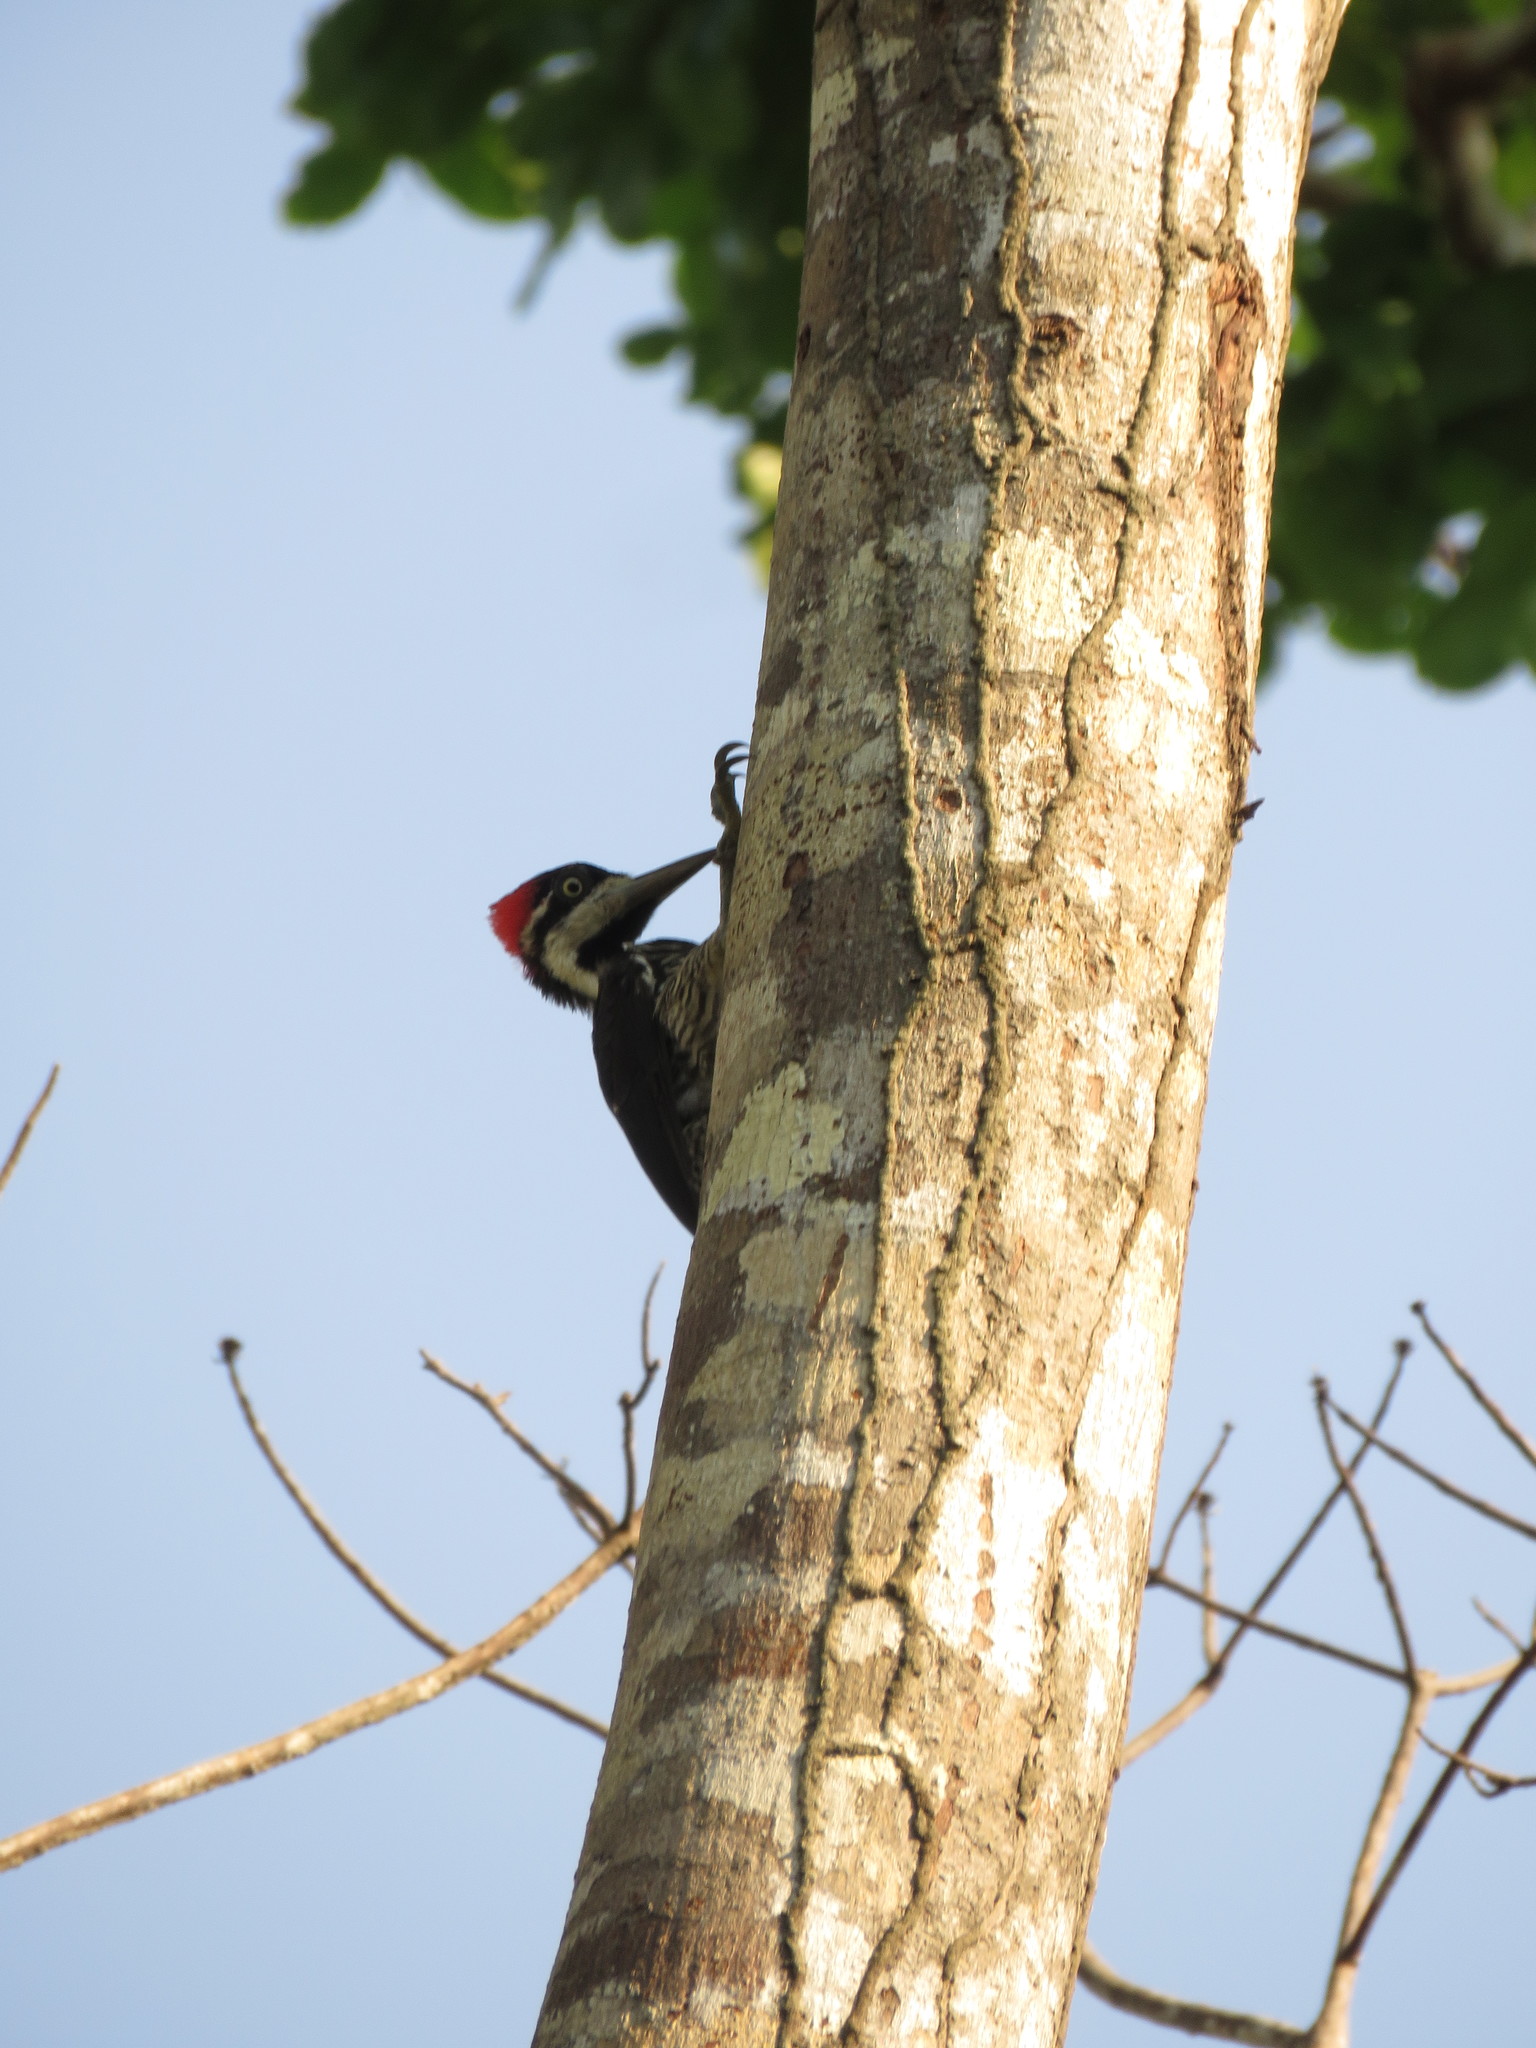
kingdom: Animalia
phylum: Chordata
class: Aves
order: Piciformes
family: Picidae
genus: Campephilus
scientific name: Campephilus melanoleucos
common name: Crimson-crested woodpecker
